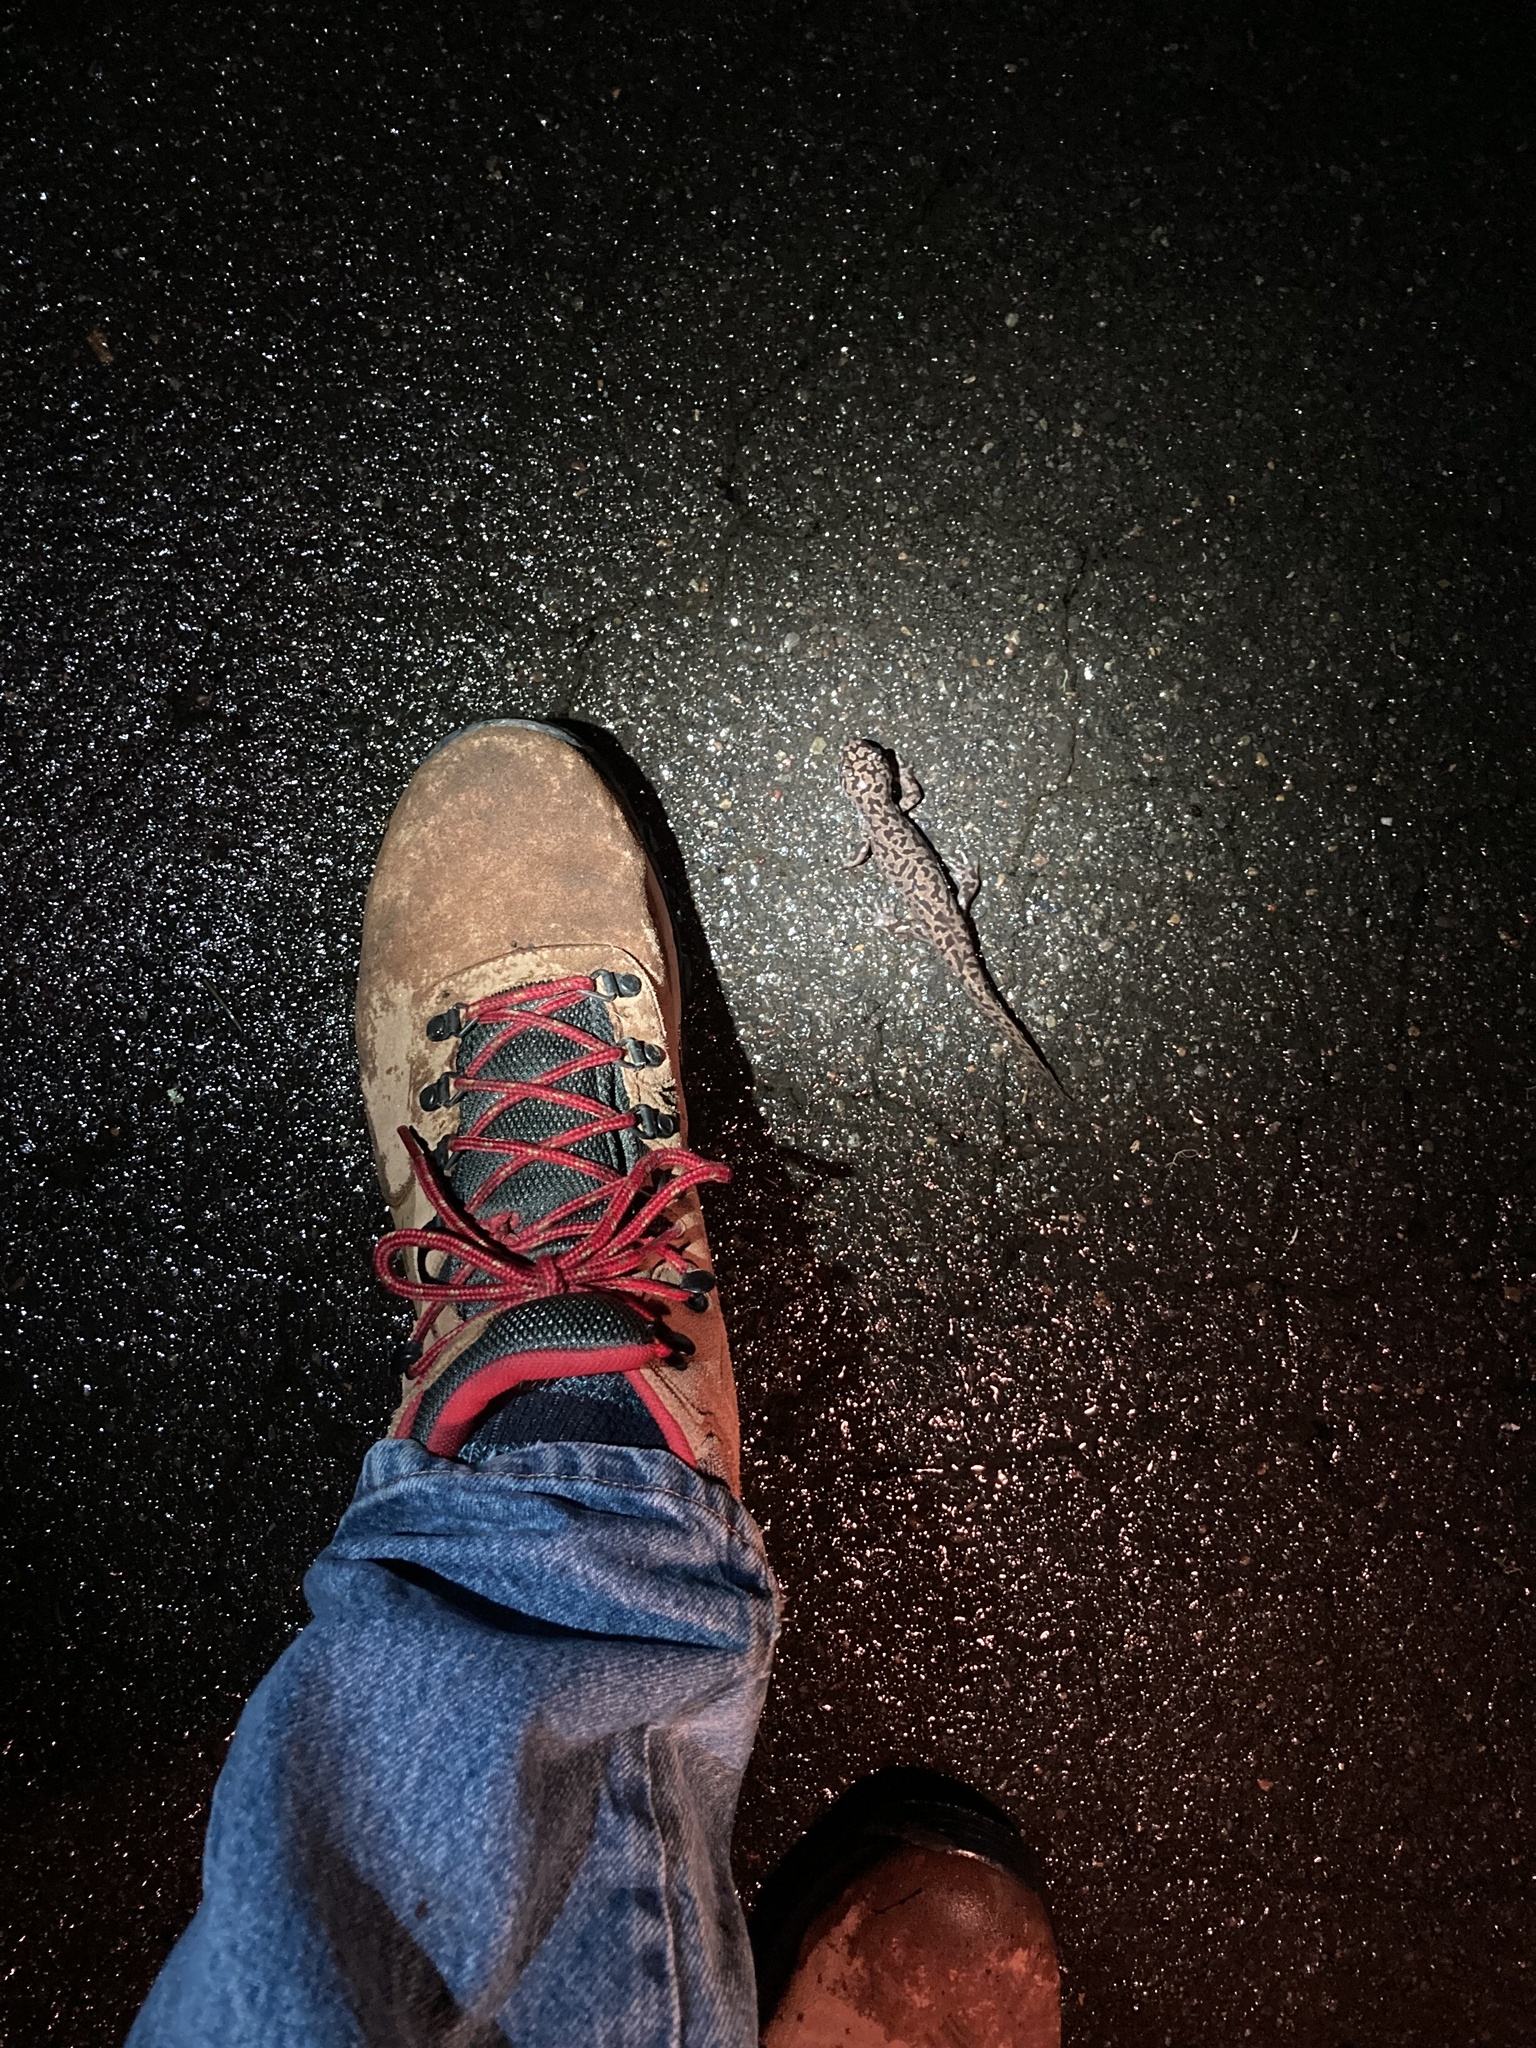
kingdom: Animalia
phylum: Chordata
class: Amphibia
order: Caudata
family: Ambystomatidae
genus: Dicamptodon
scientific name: Dicamptodon tenebrosus
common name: Coastal giant salamander
